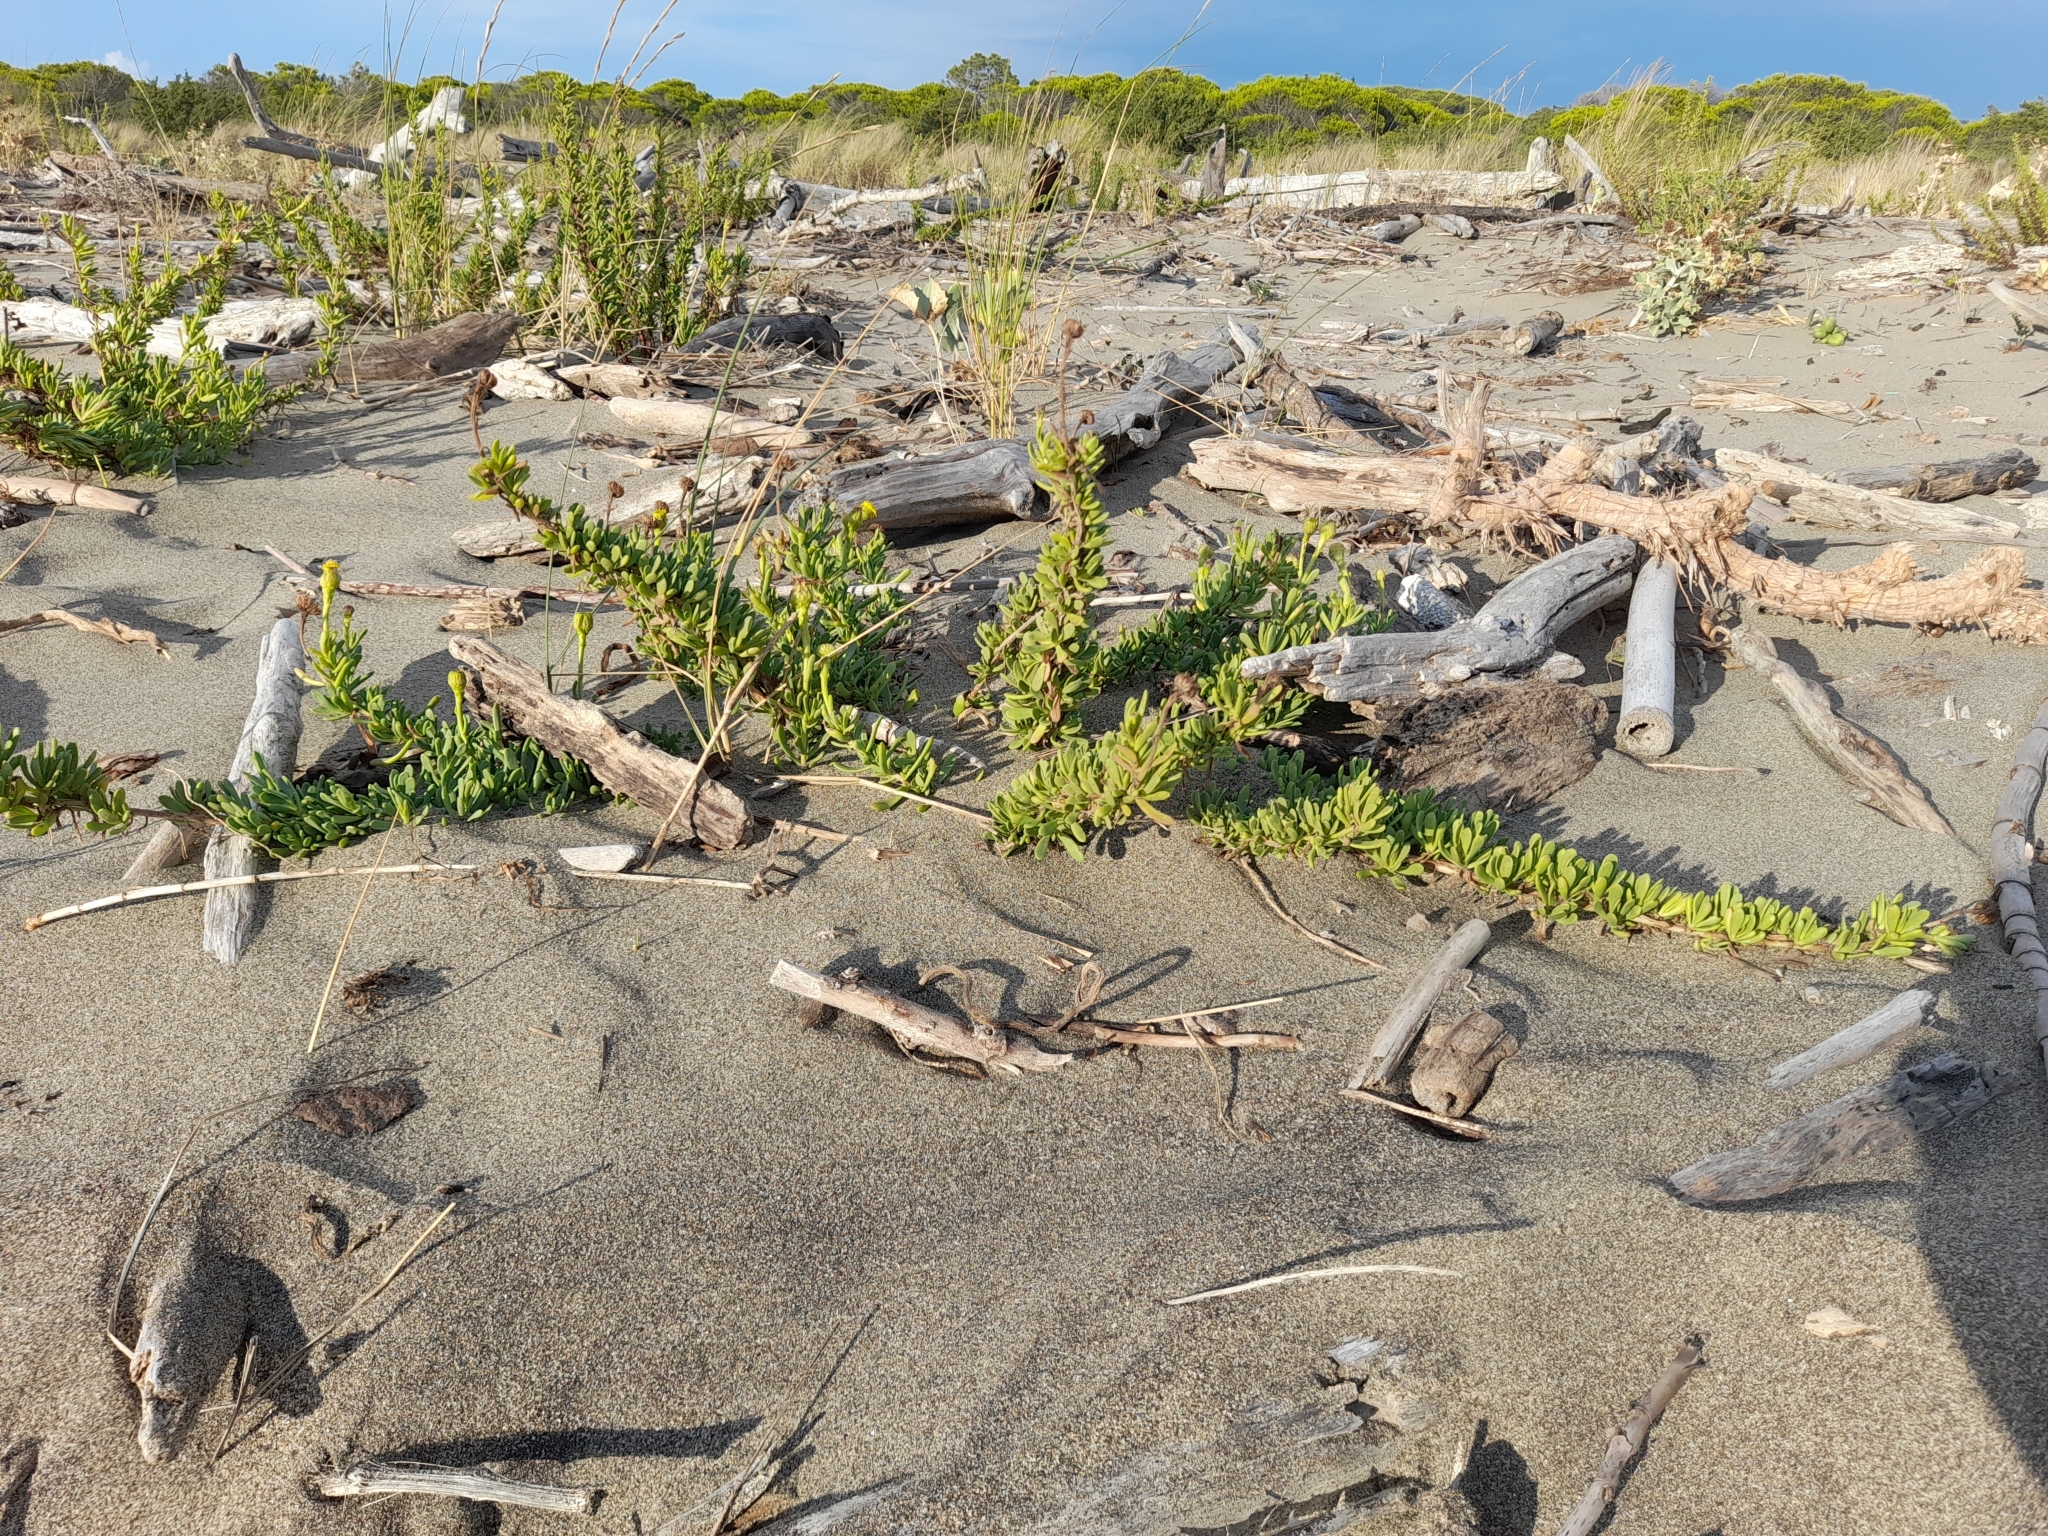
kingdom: Plantae
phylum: Tracheophyta
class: Magnoliopsida
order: Asterales
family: Asteraceae
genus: Limbarda
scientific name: Limbarda crithmoides
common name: Golden samphire
